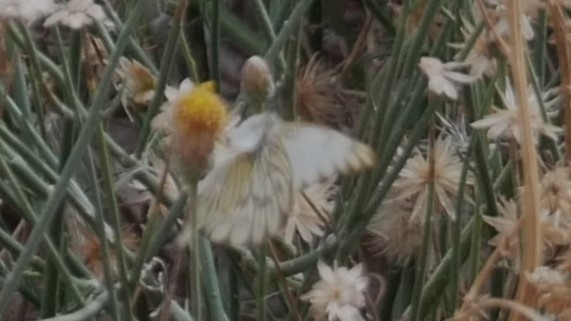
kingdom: Animalia
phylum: Arthropoda
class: Insecta
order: Lepidoptera
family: Pieridae
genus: Ascia
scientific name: Ascia monuste
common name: Great southern white
